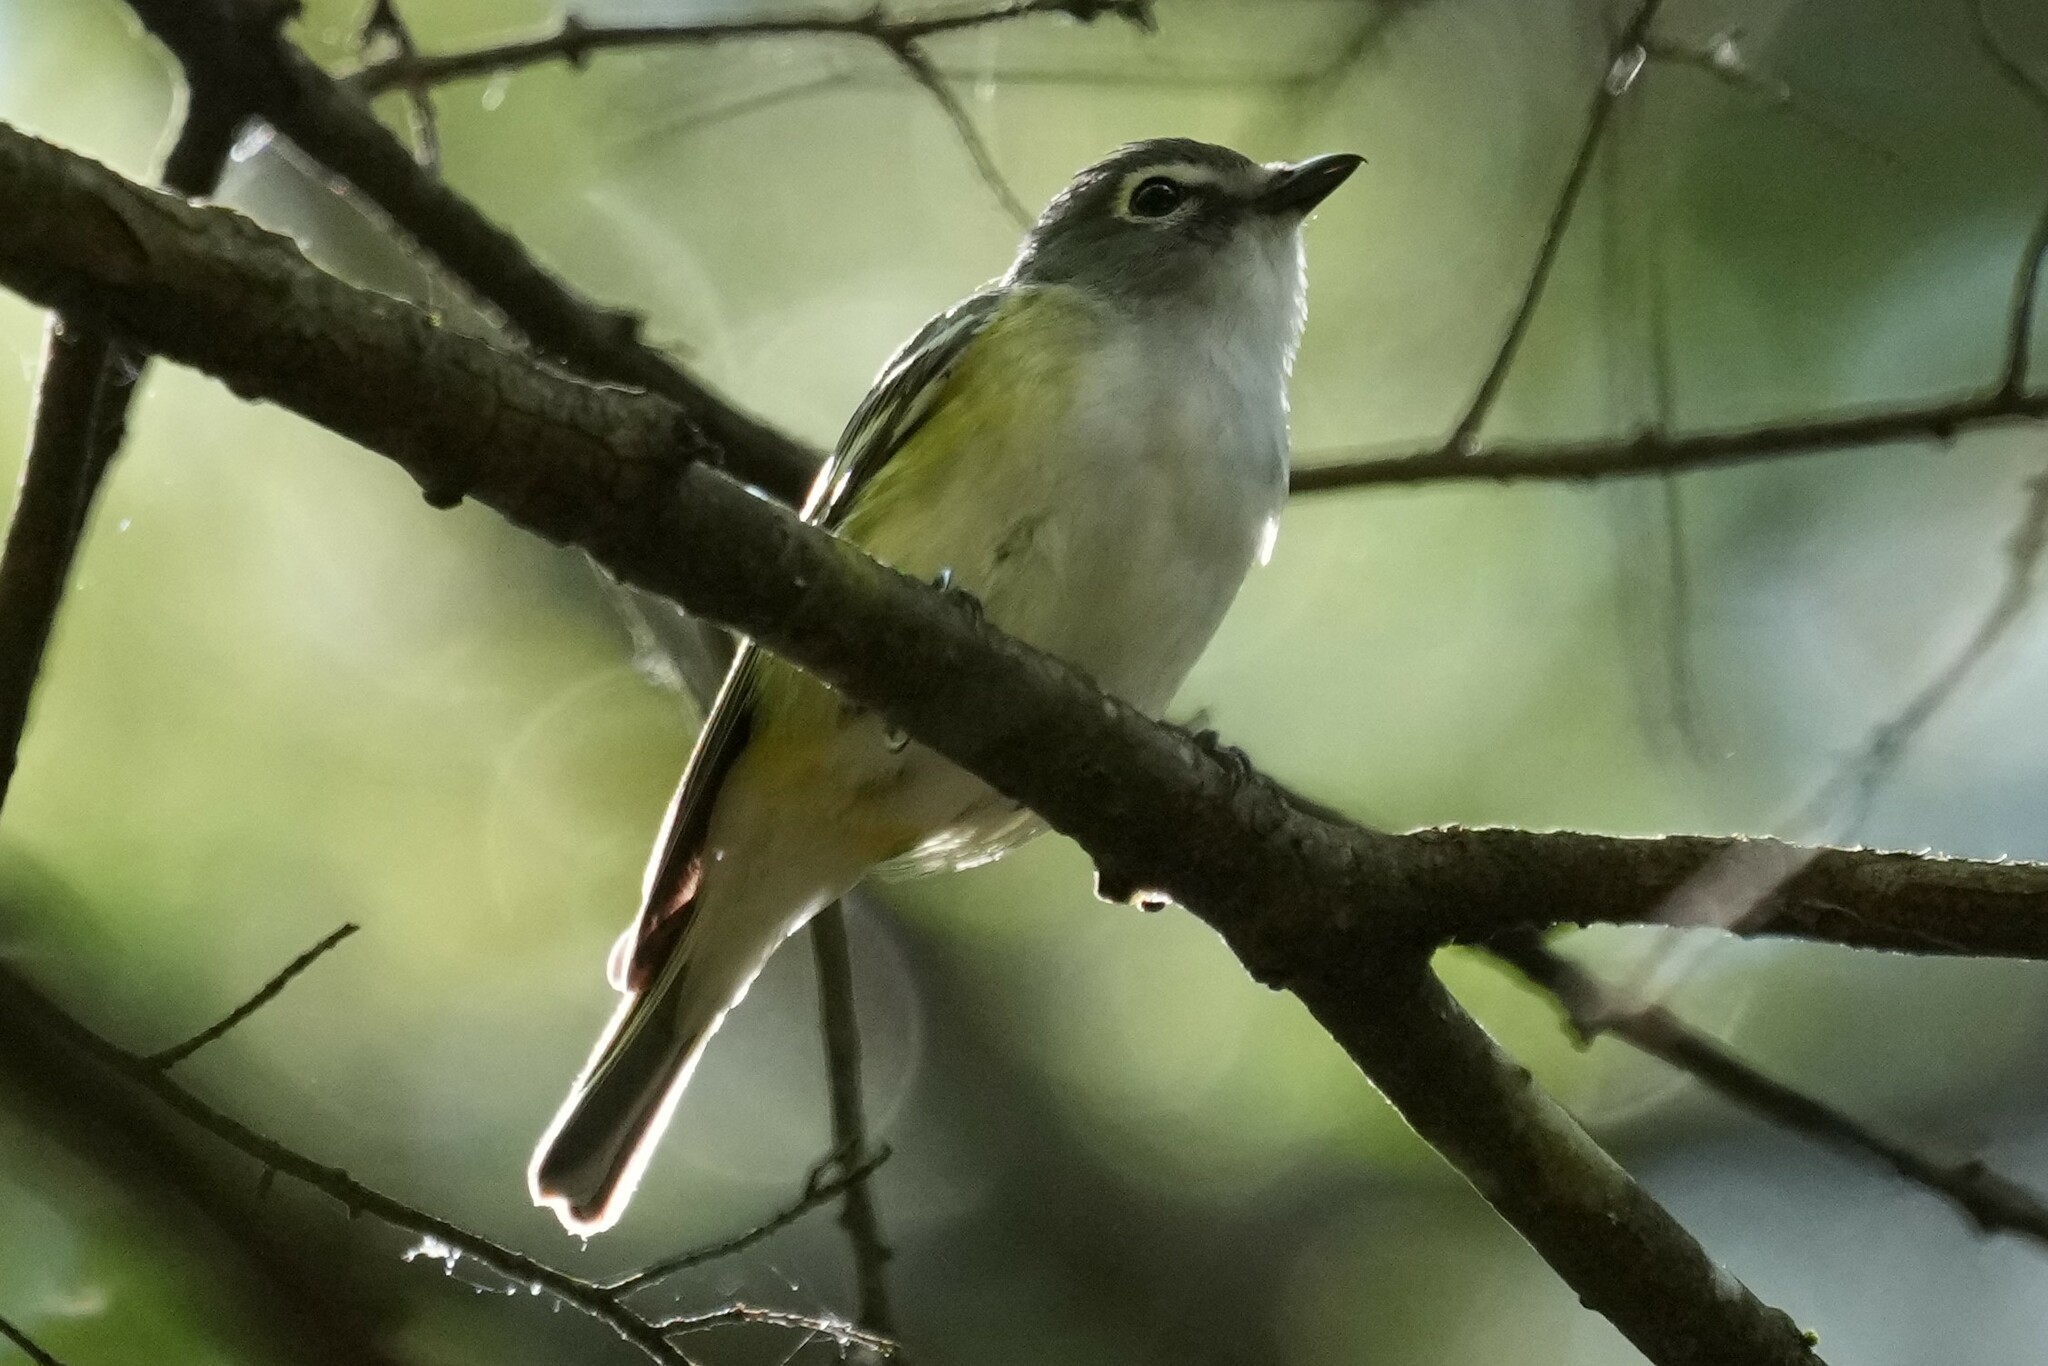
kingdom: Animalia
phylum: Chordata
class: Aves
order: Passeriformes
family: Vireonidae
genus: Vireo
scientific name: Vireo solitarius
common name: Blue-headed vireo
